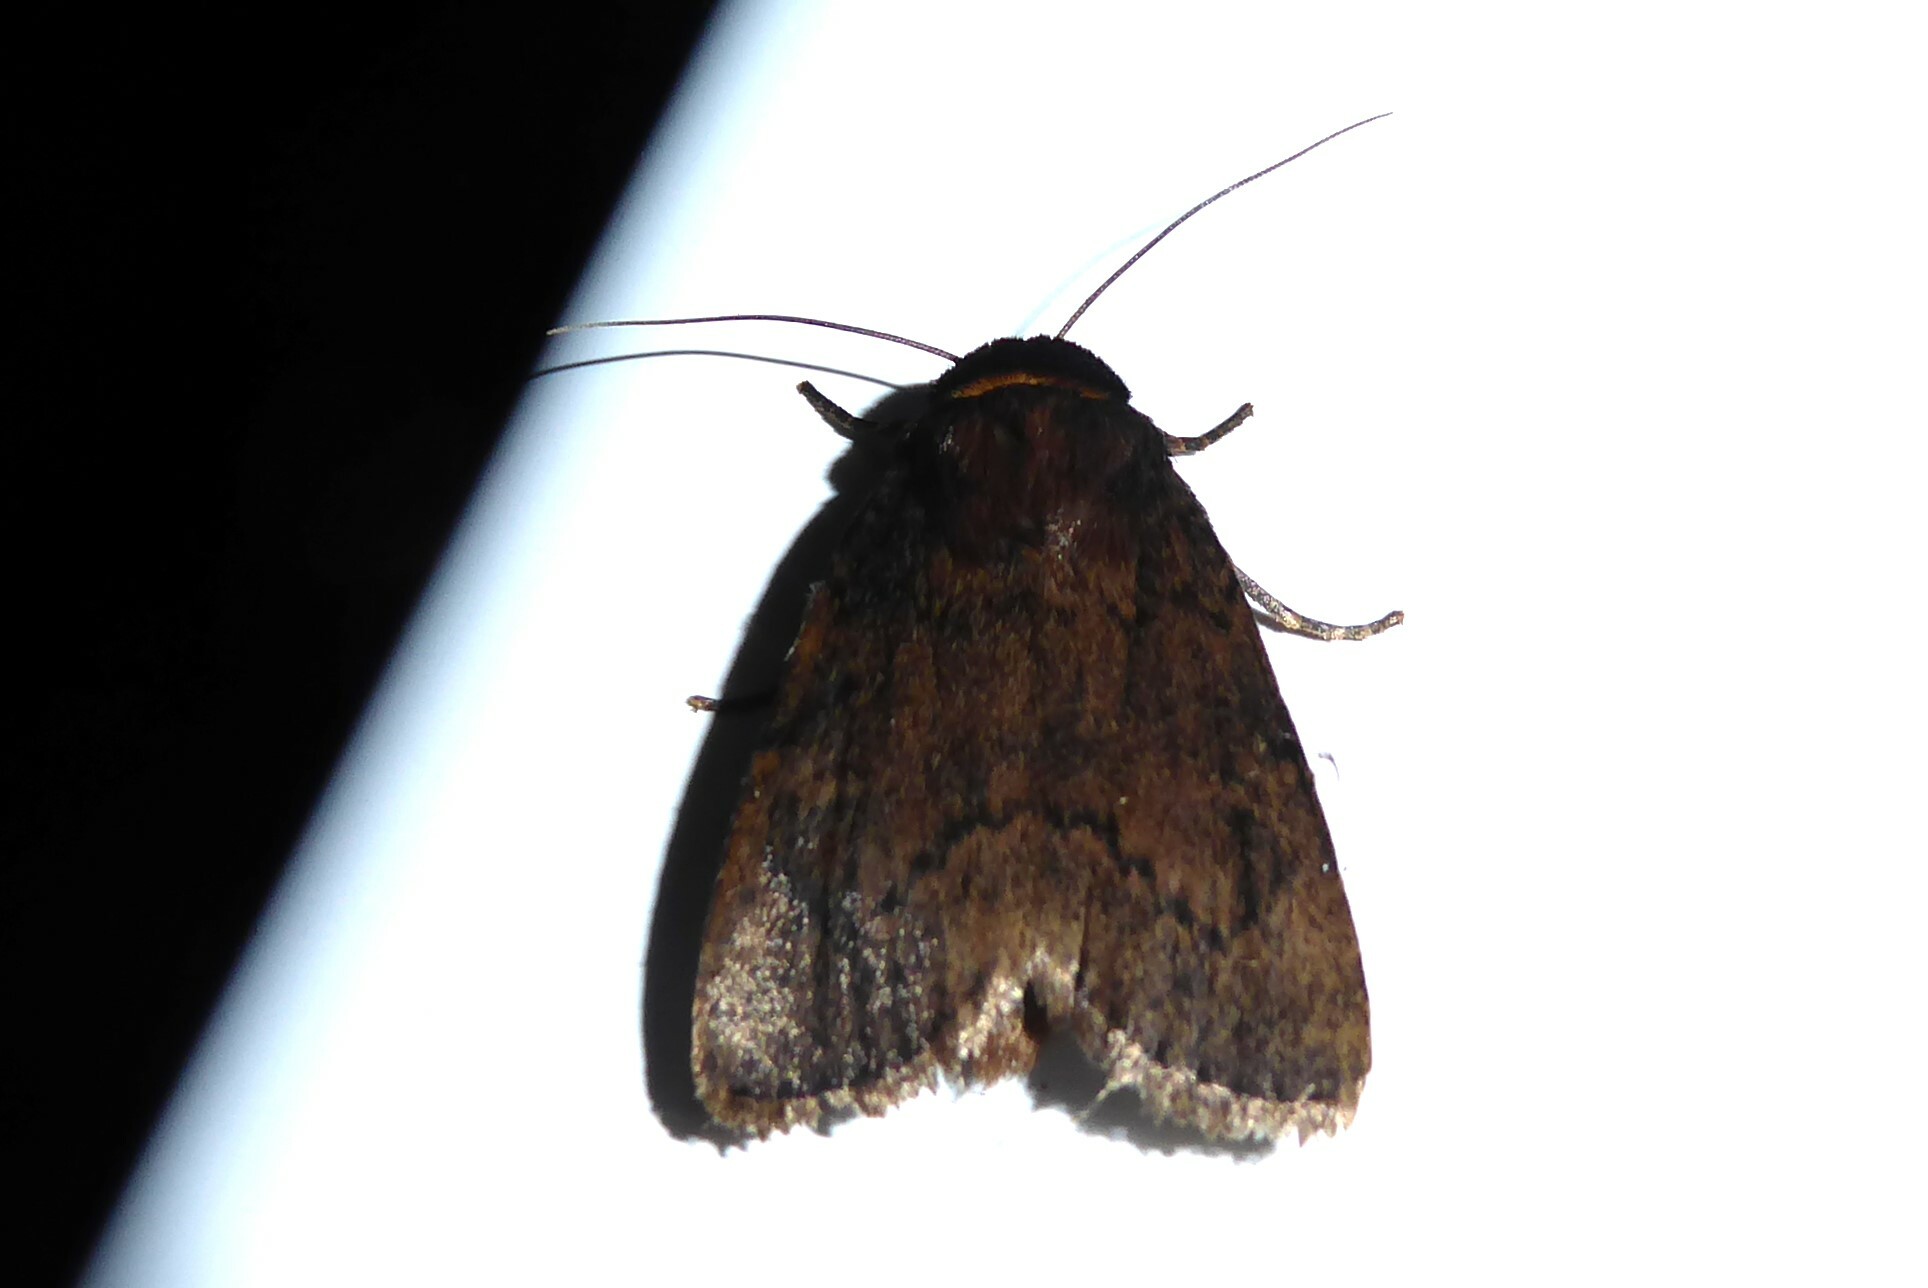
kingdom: Animalia
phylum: Arthropoda
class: Insecta
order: Lepidoptera
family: Noctuidae
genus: Bityla
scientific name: Bityla defigurata
